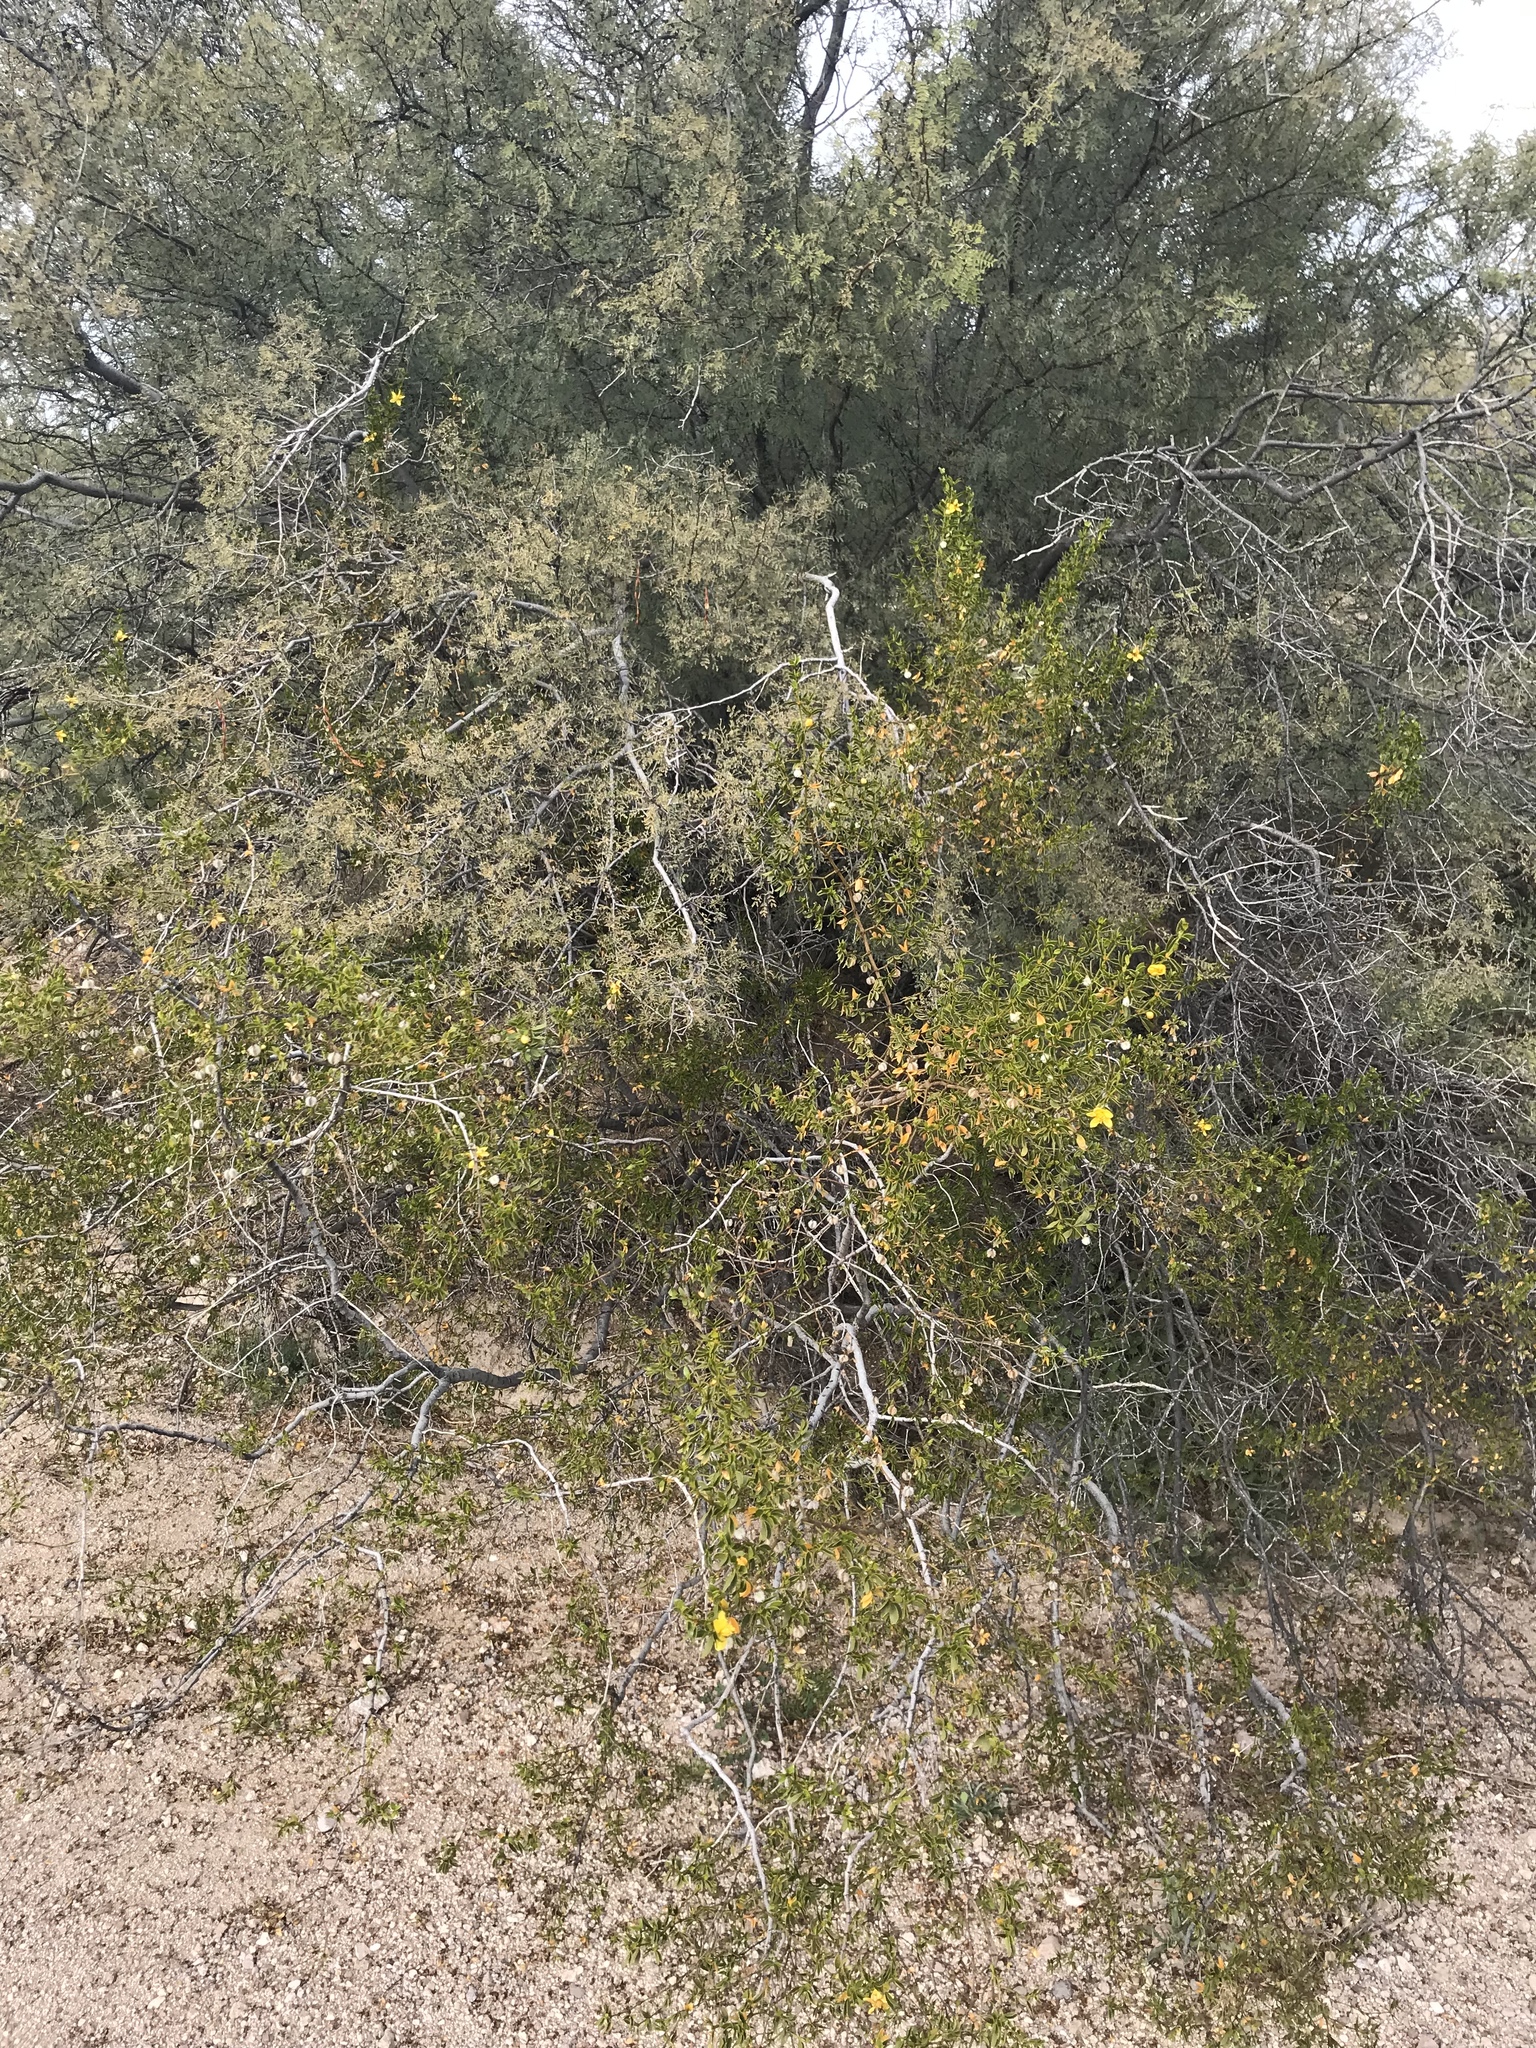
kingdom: Plantae
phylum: Tracheophyta
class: Magnoliopsida
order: Zygophyllales
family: Zygophyllaceae
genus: Larrea
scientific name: Larrea tridentata
